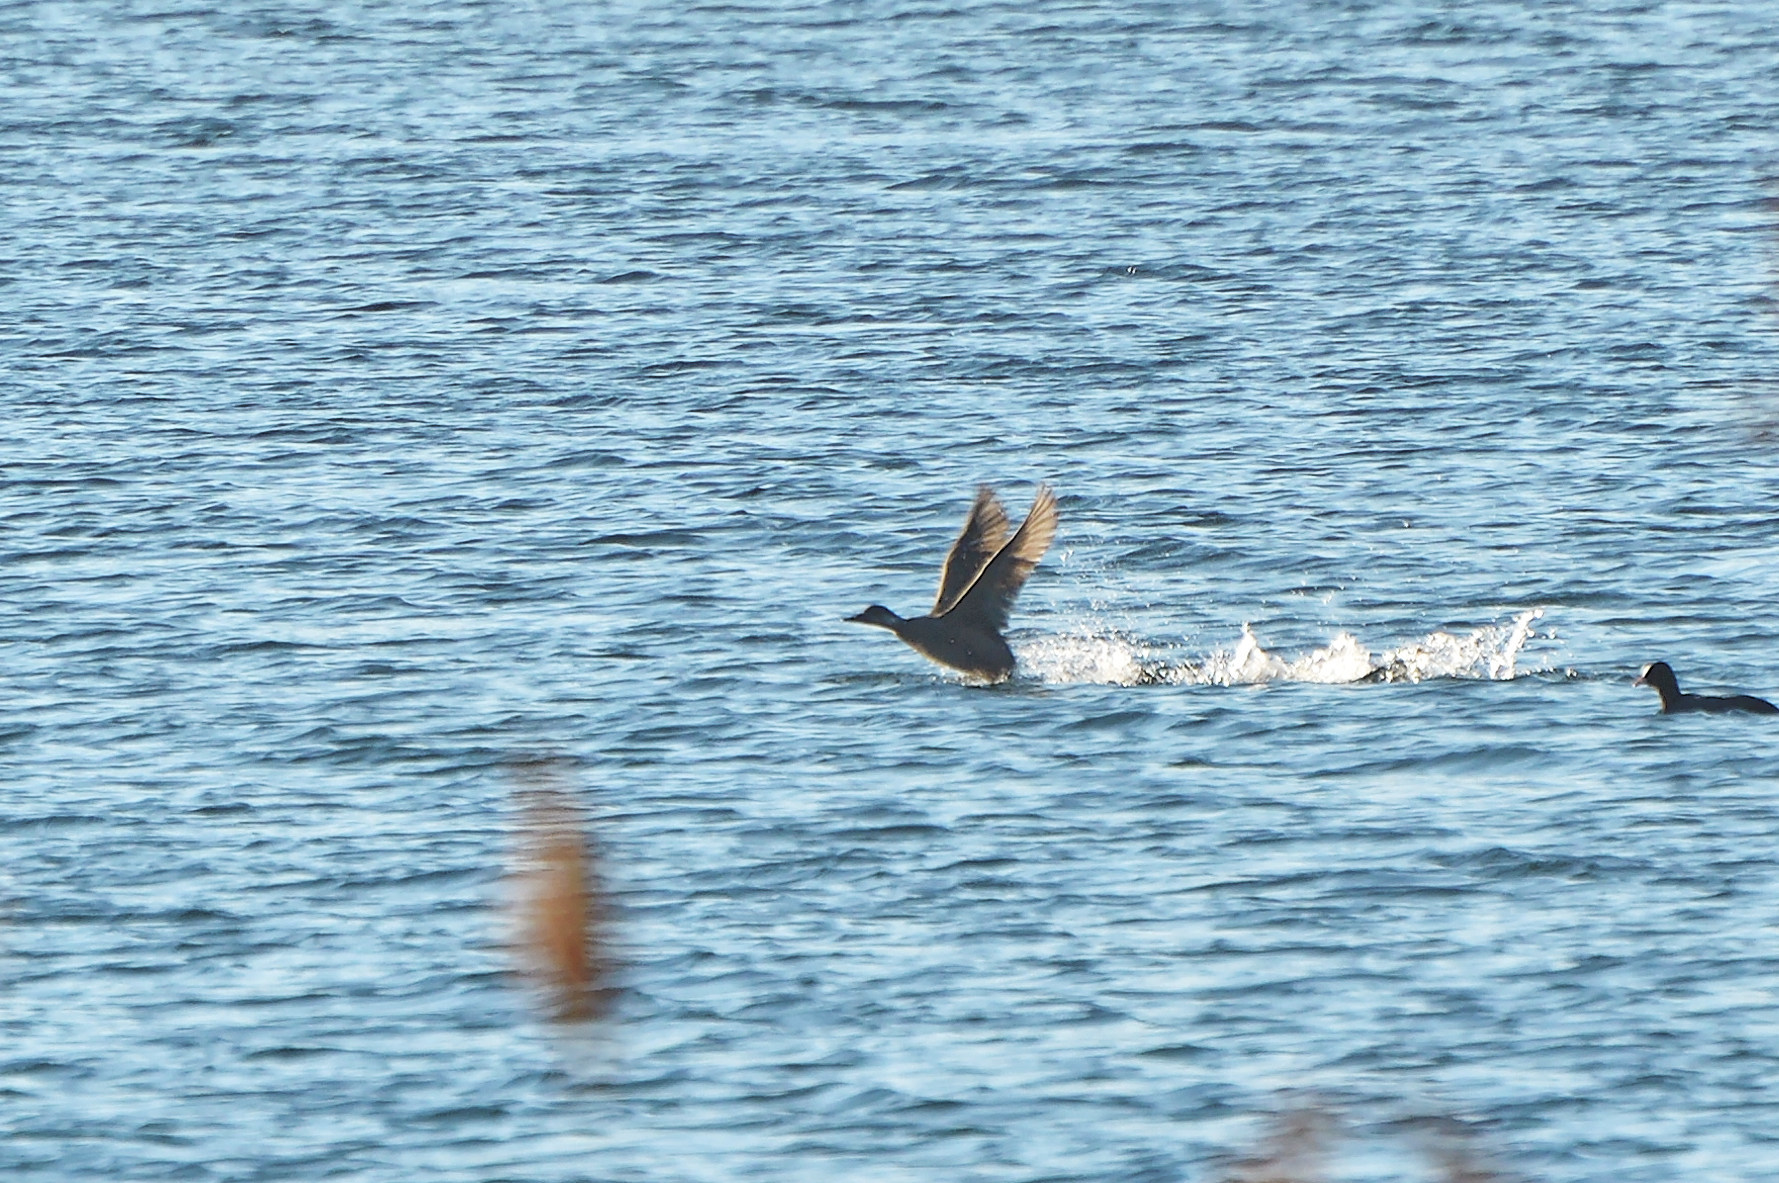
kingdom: Animalia
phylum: Chordata
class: Aves
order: Anseriformes
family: Anatidae
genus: Melanitta
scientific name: Melanitta nigra
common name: Common scoter
